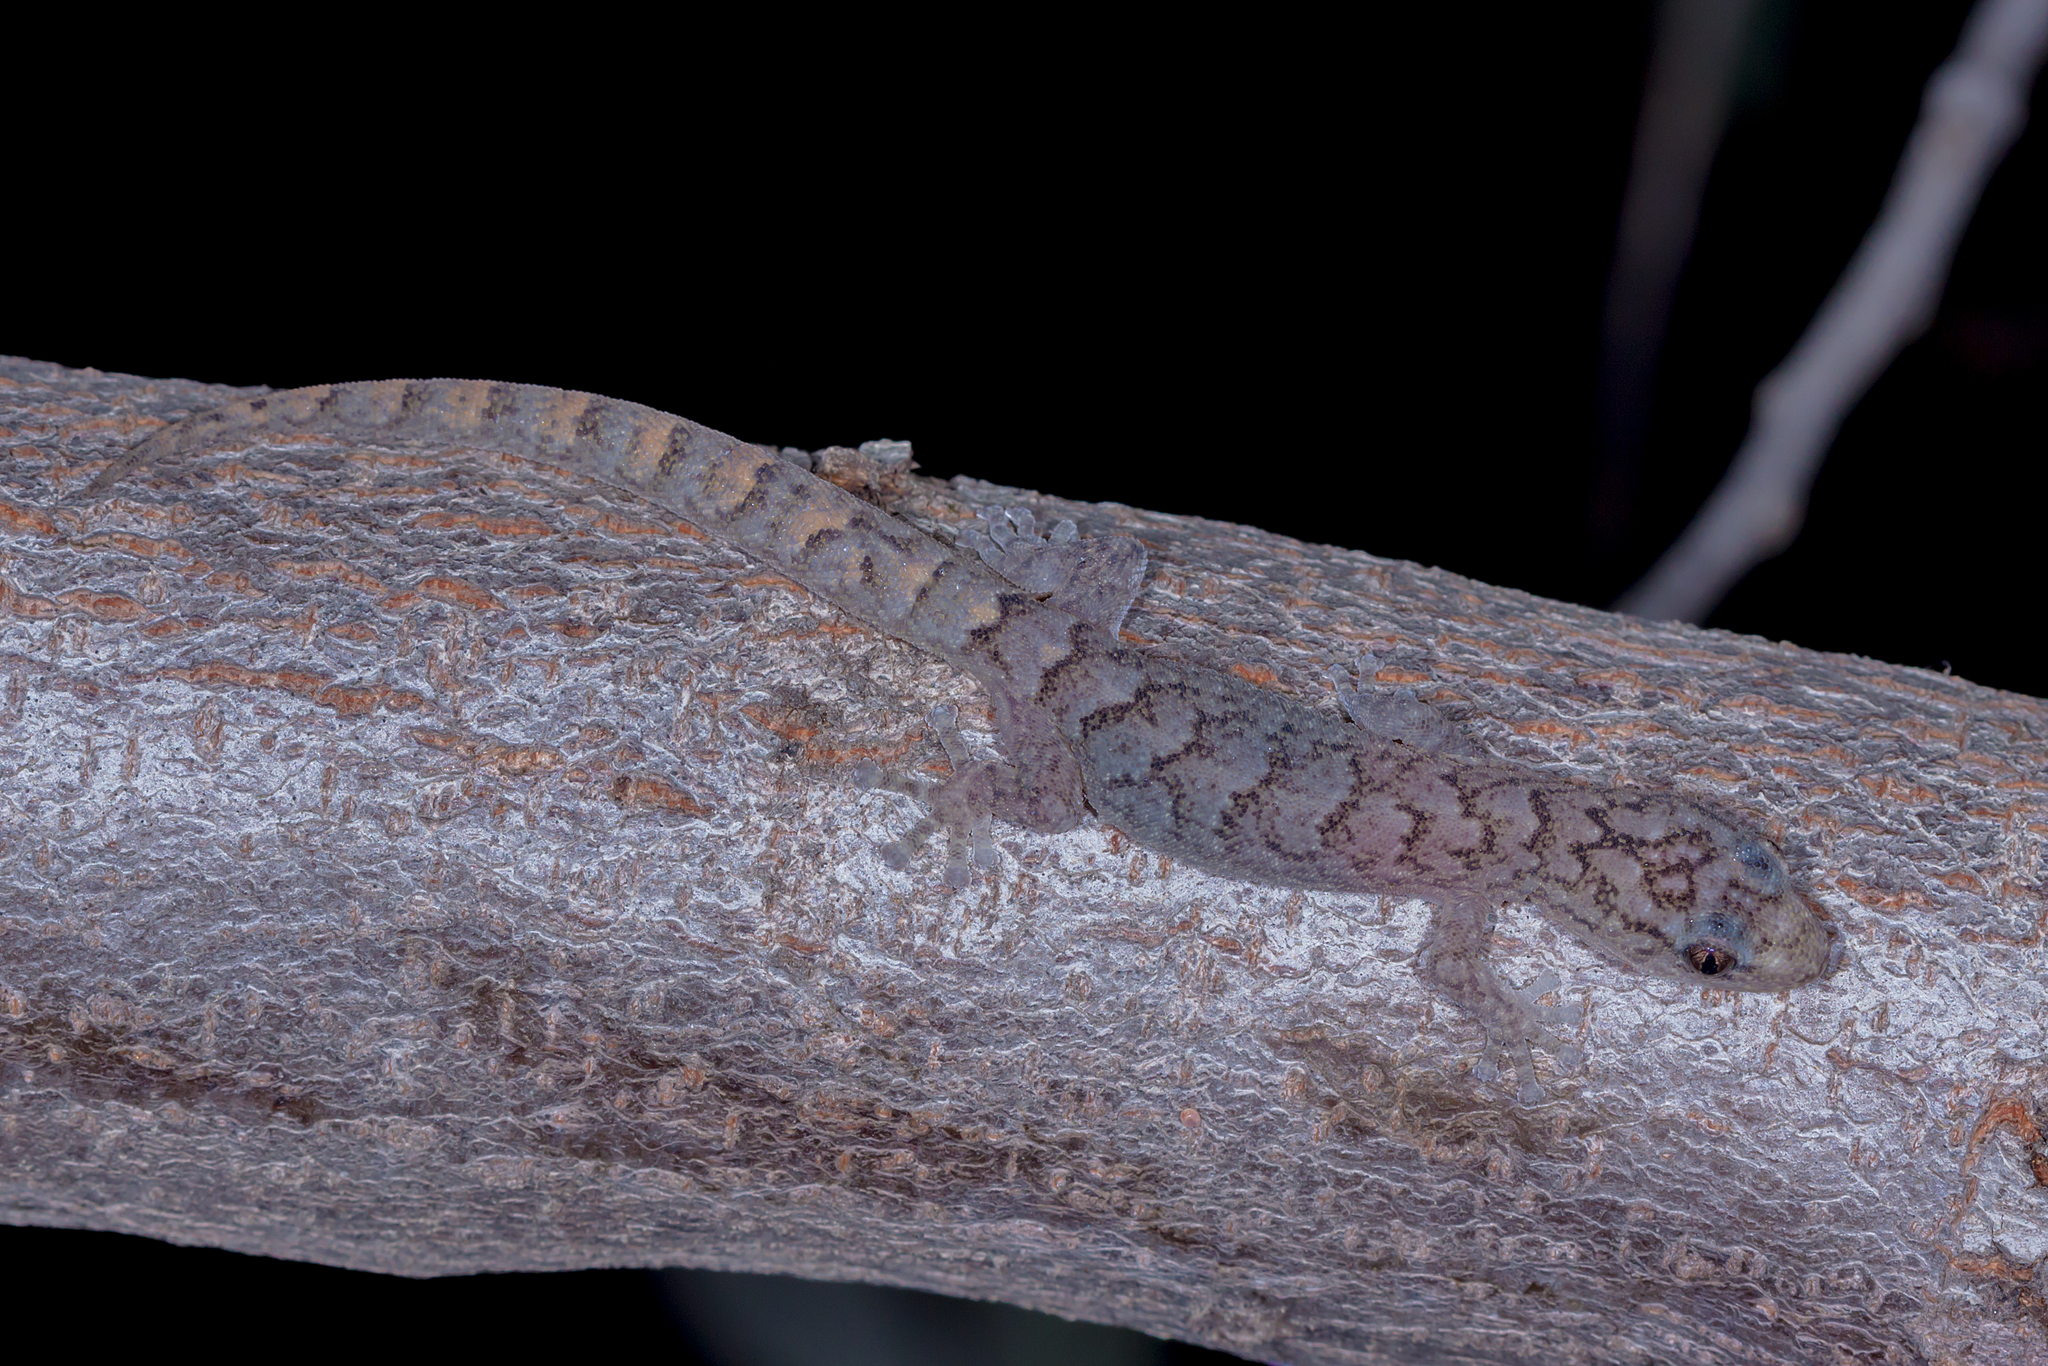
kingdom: Animalia
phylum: Chordata
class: Squamata
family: Gekkonidae
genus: Christinus
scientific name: Christinus marmoratus
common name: Marbled gecko
